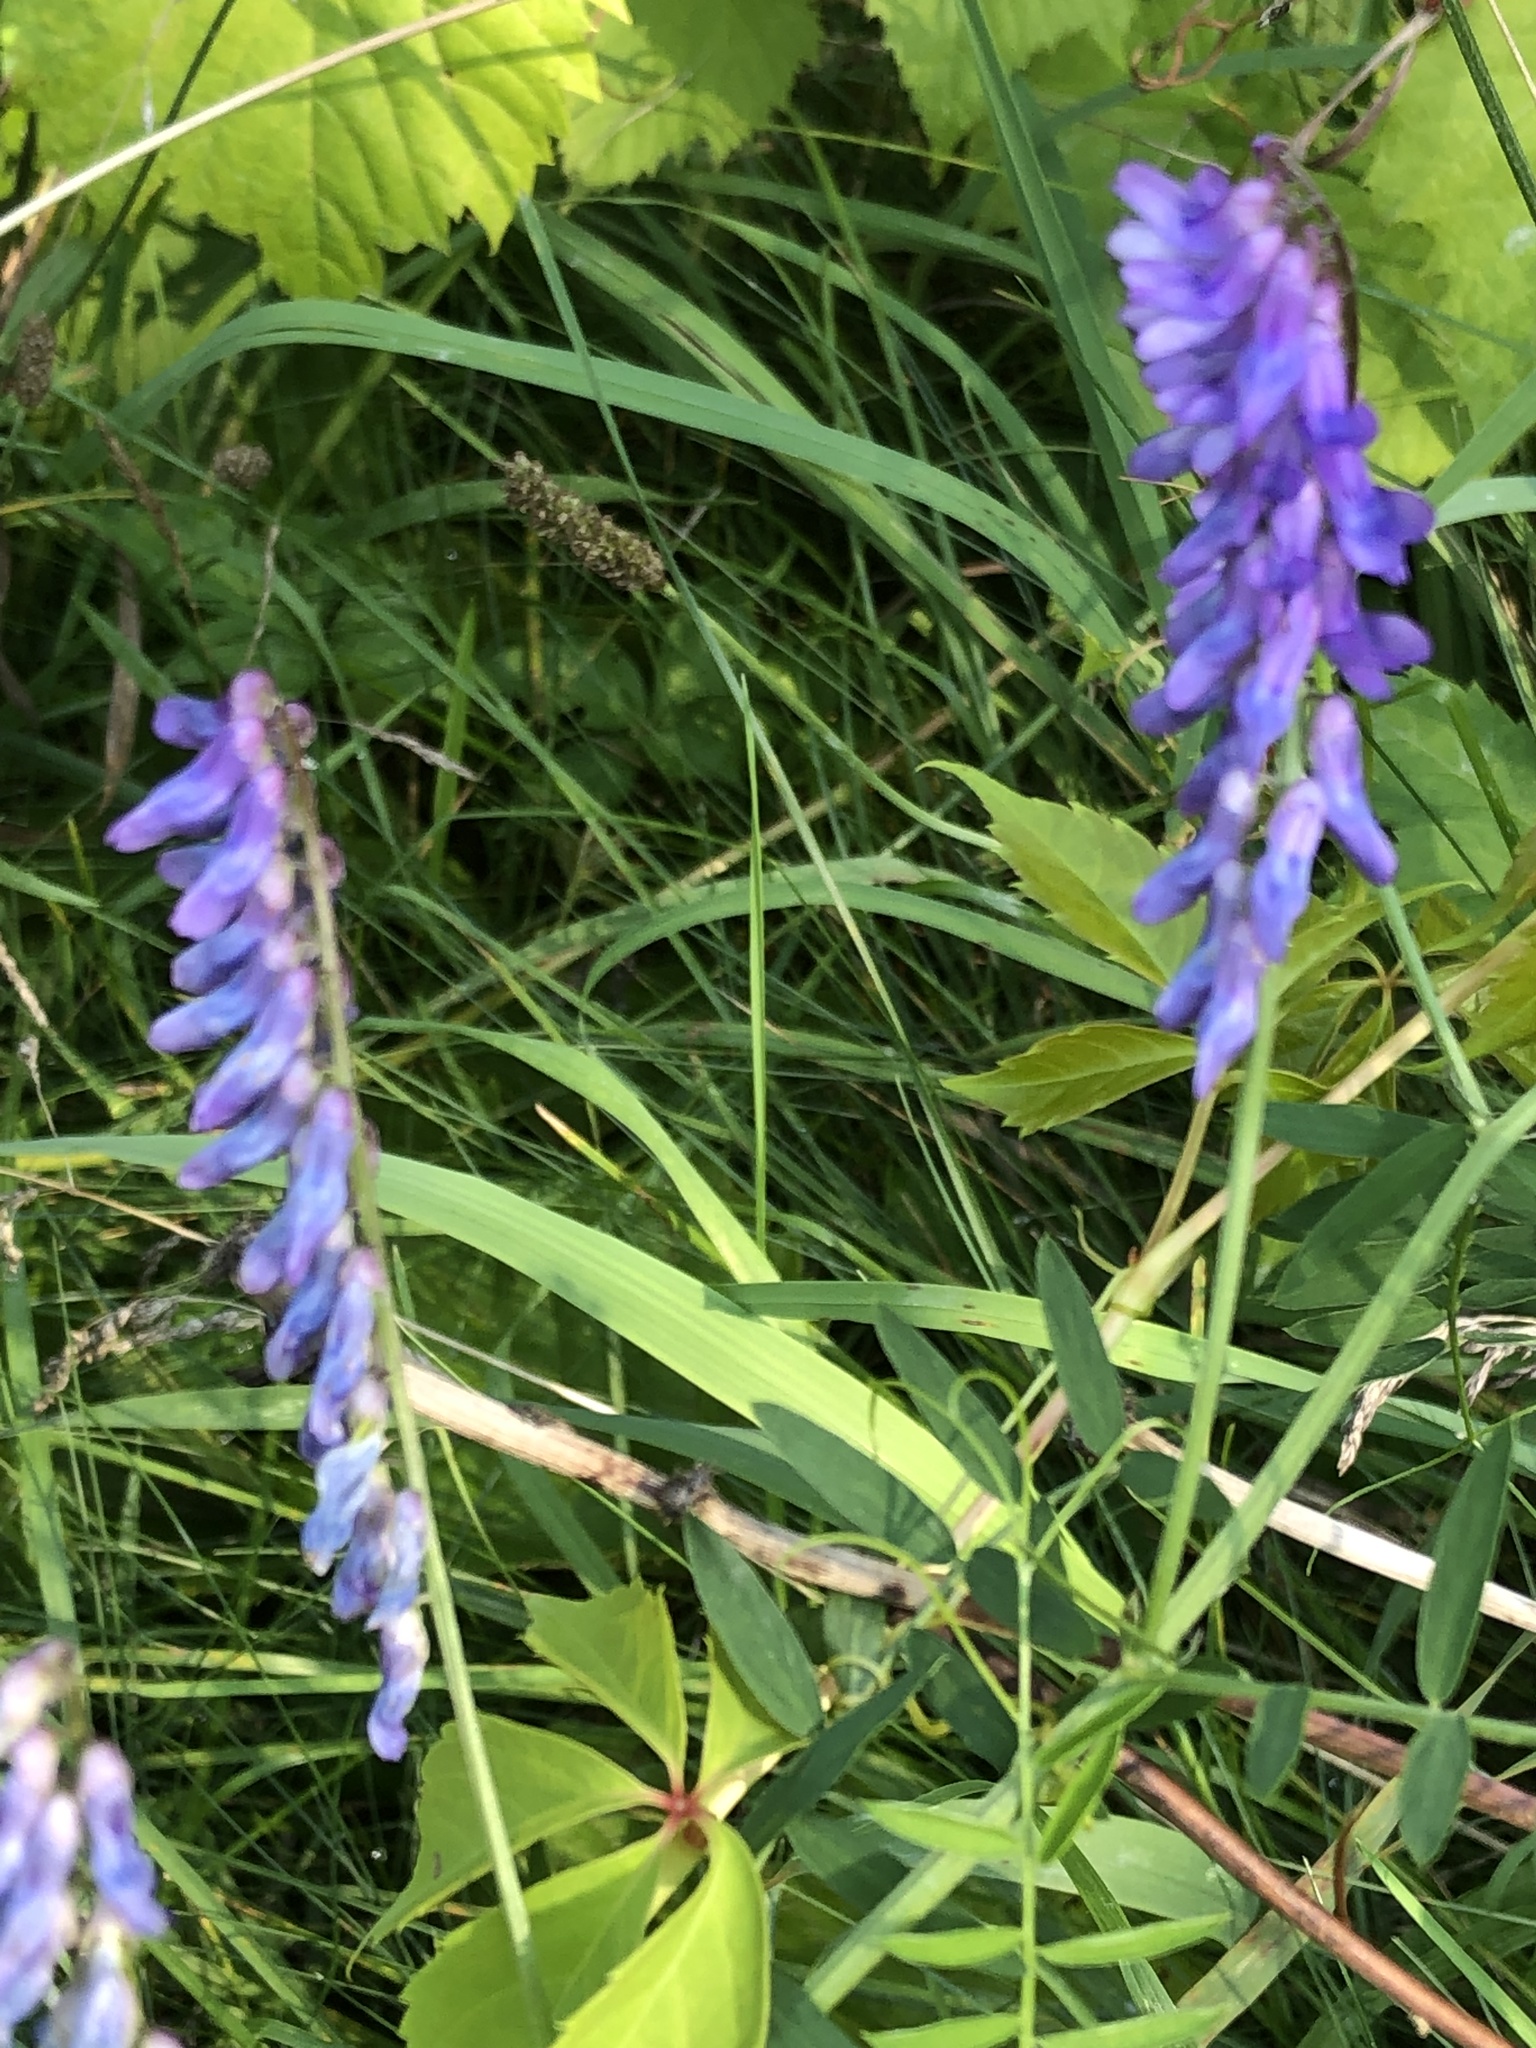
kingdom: Plantae
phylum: Tracheophyta
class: Magnoliopsida
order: Fabales
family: Fabaceae
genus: Vicia
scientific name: Vicia cracca
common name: Bird vetch
